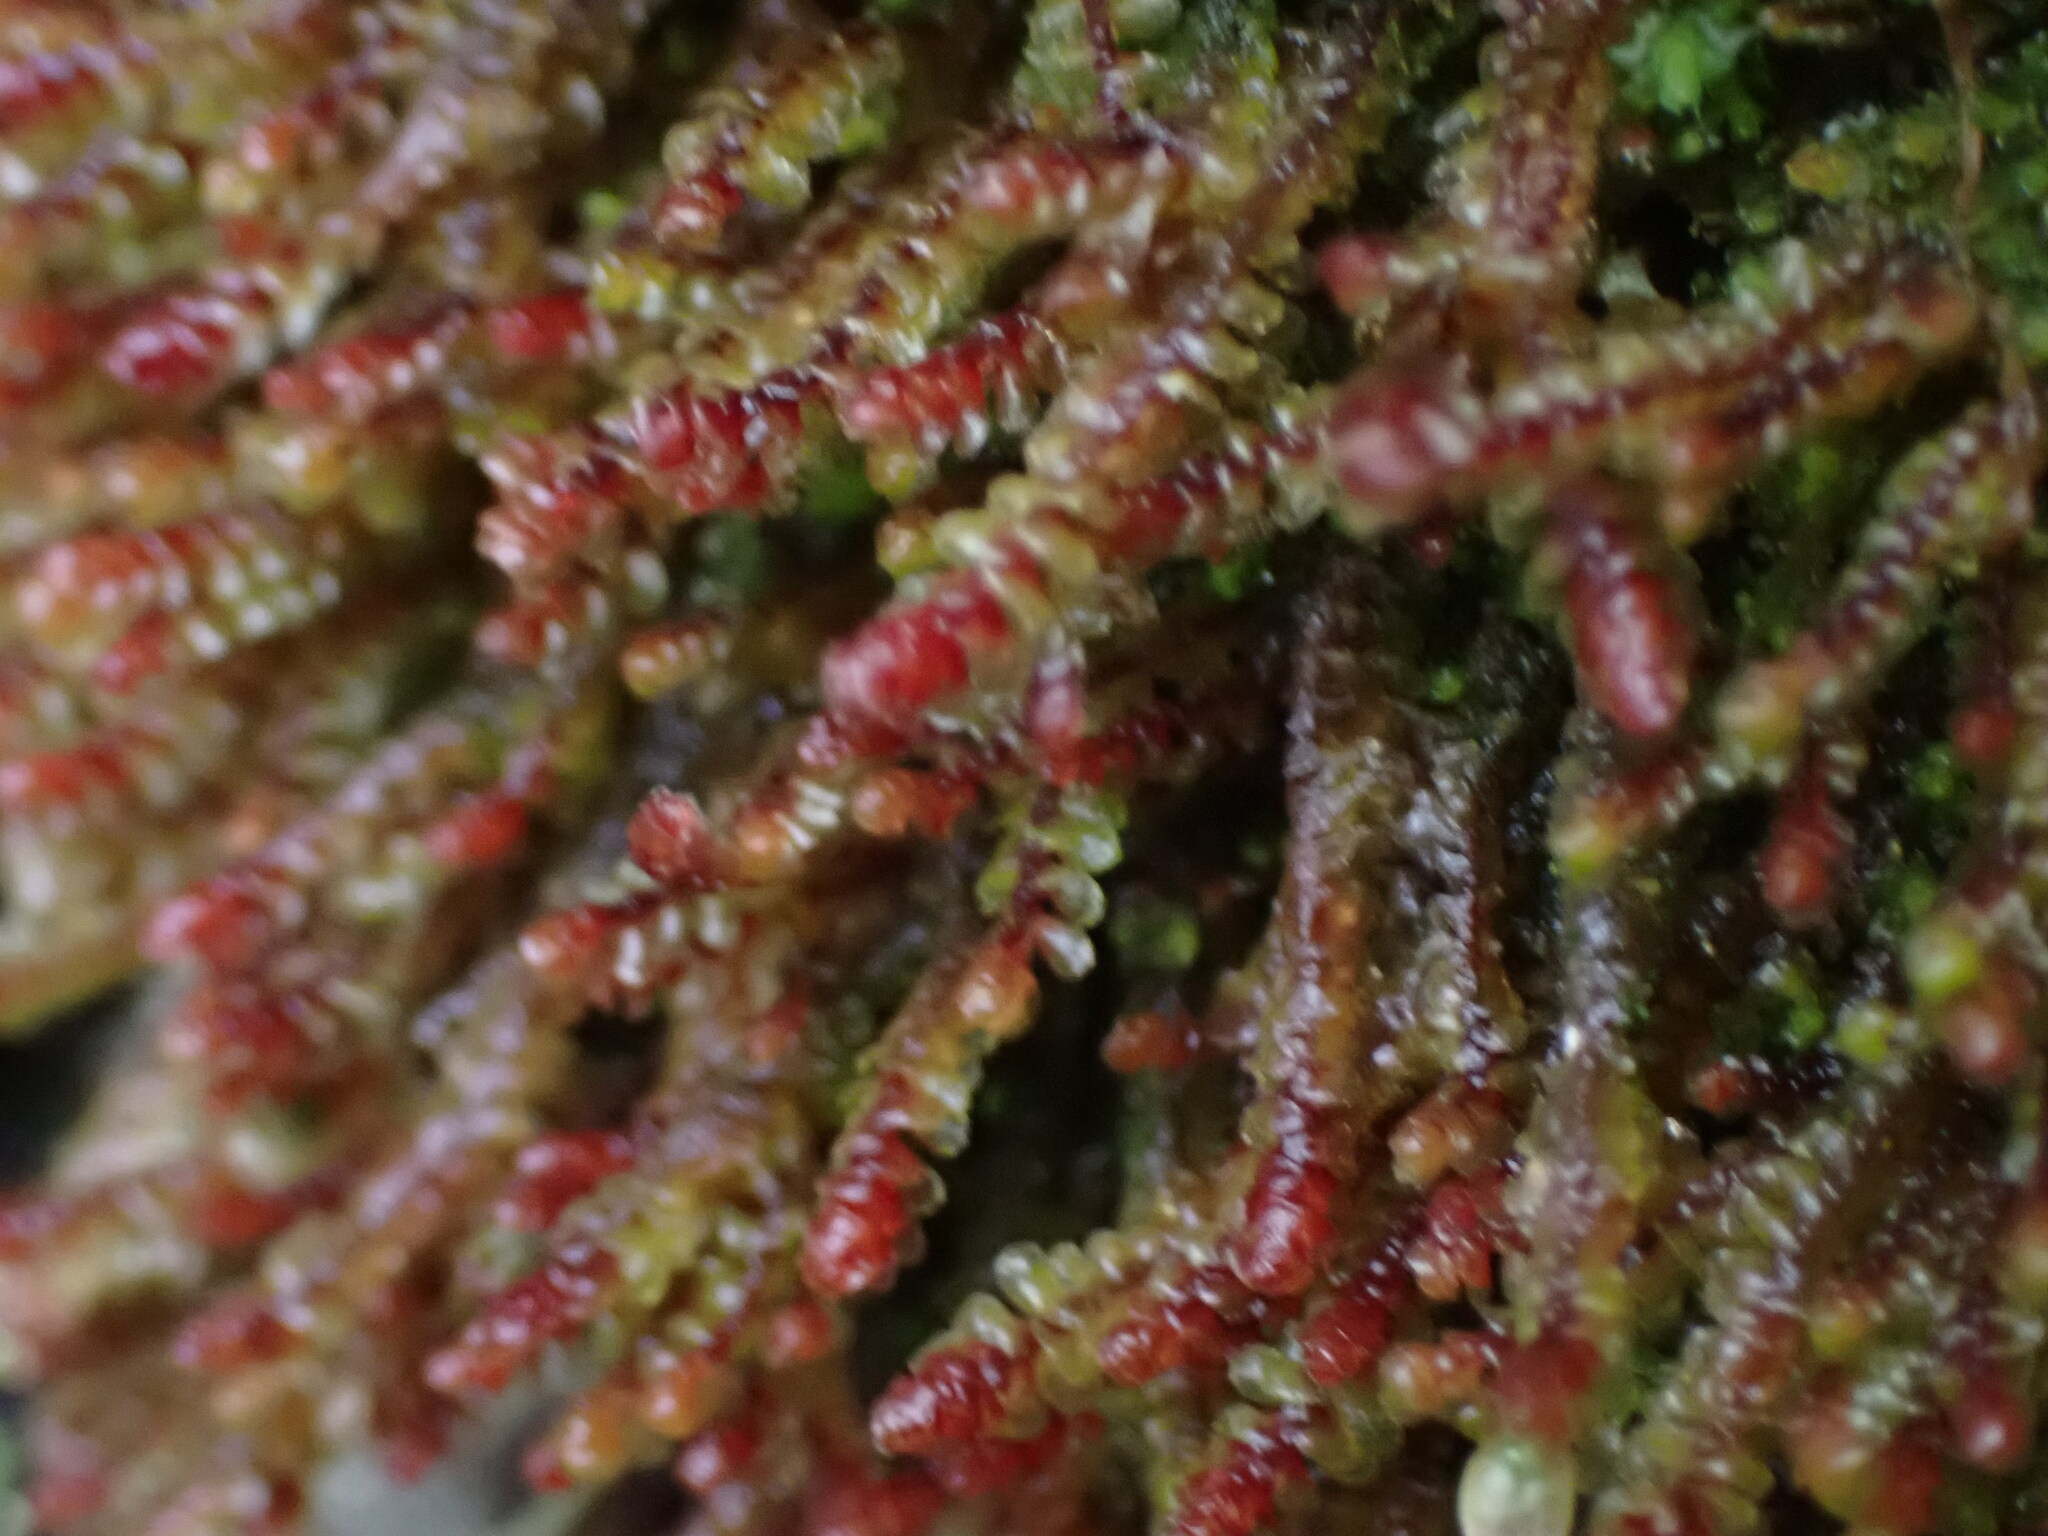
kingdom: Plantae
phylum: Marchantiophyta
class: Jungermanniopsida
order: Jungermanniales
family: Scapaniaceae
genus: Scapania
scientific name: Scapania americana
